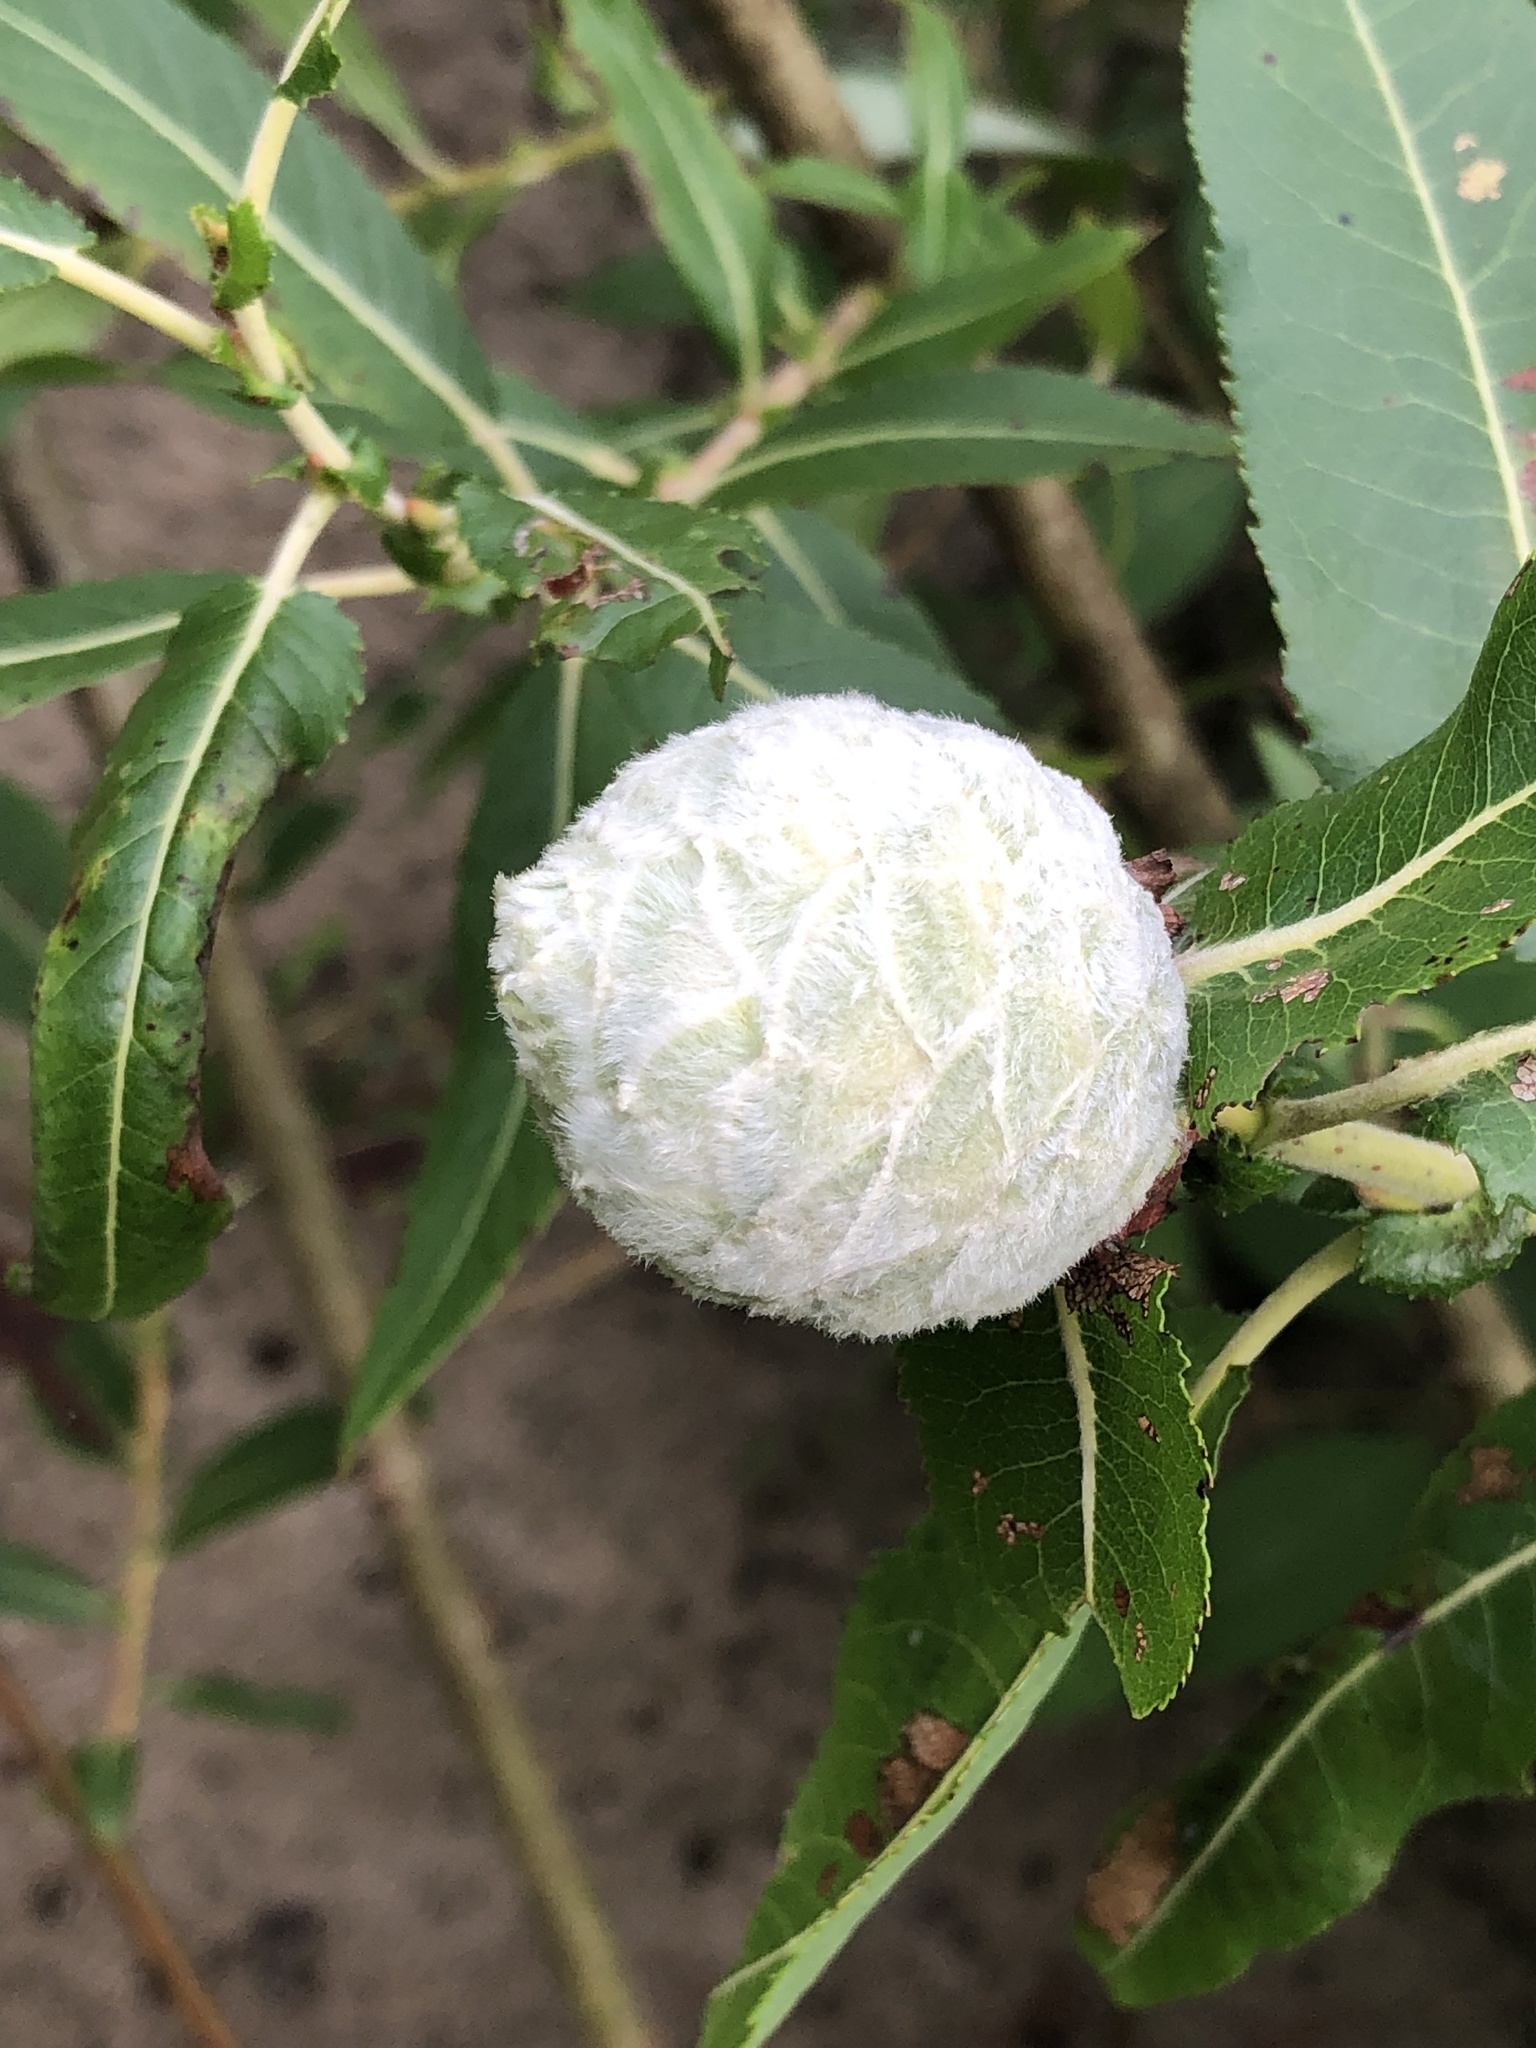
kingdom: Animalia
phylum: Arthropoda
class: Insecta
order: Diptera
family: Cecidomyiidae
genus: Rabdophaga
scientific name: Rabdophaga strobiloides
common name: Willow pinecone gall midge
